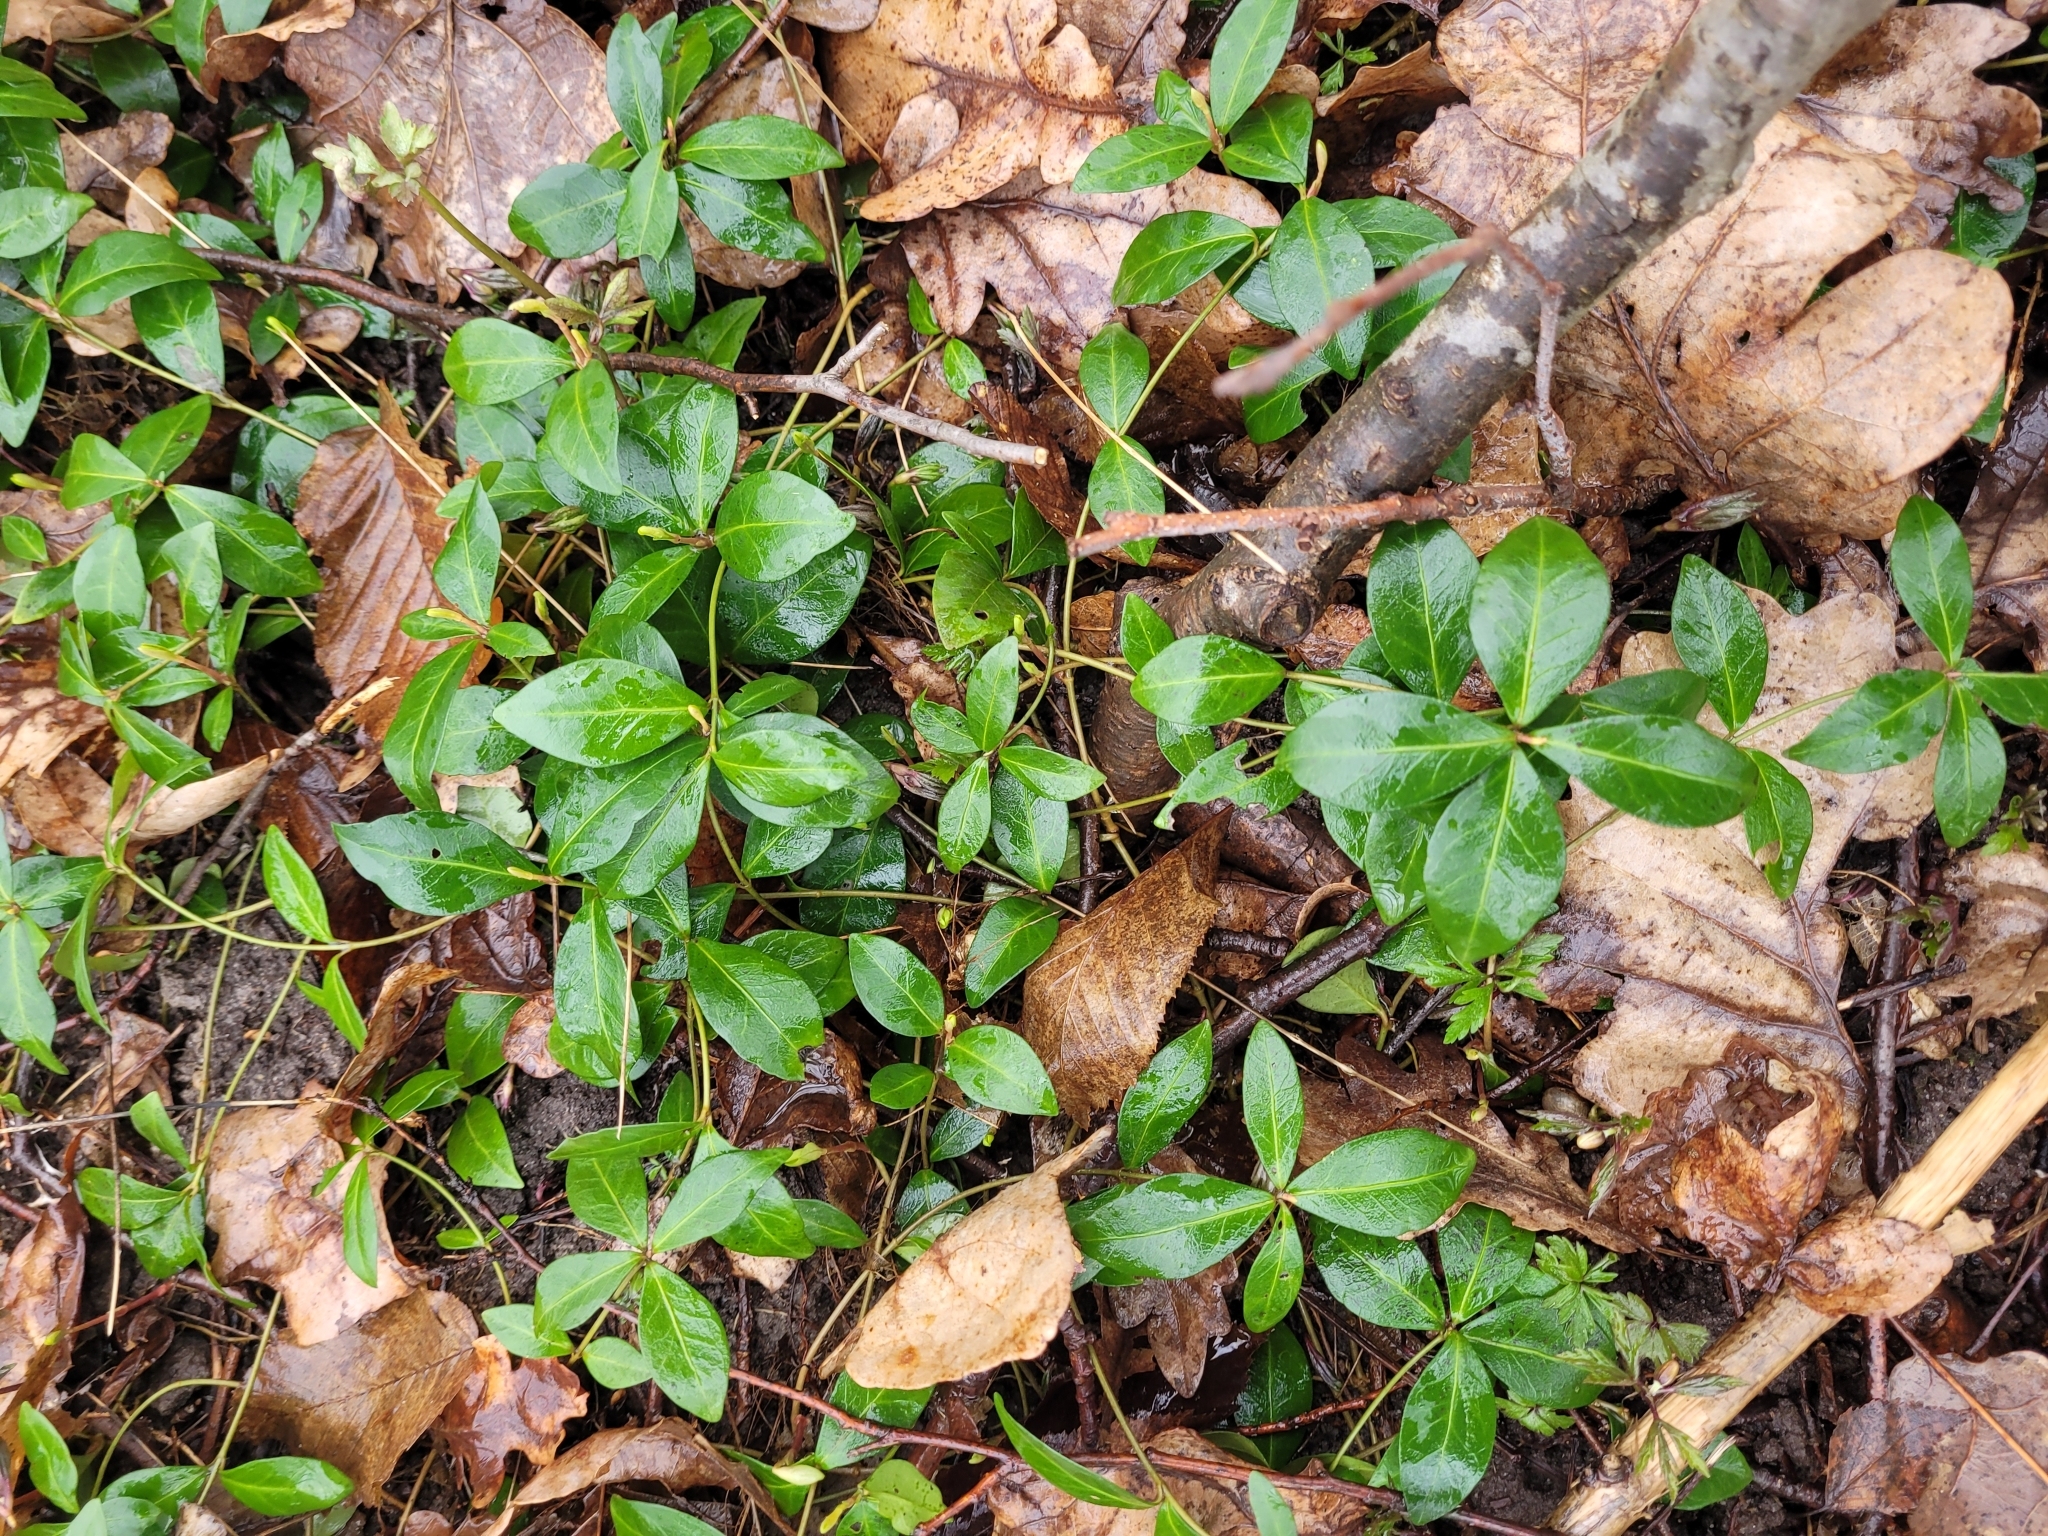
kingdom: Plantae
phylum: Tracheophyta
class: Magnoliopsida
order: Gentianales
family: Apocynaceae
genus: Vinca
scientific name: Vinca minor
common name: Lesser periwinkle
